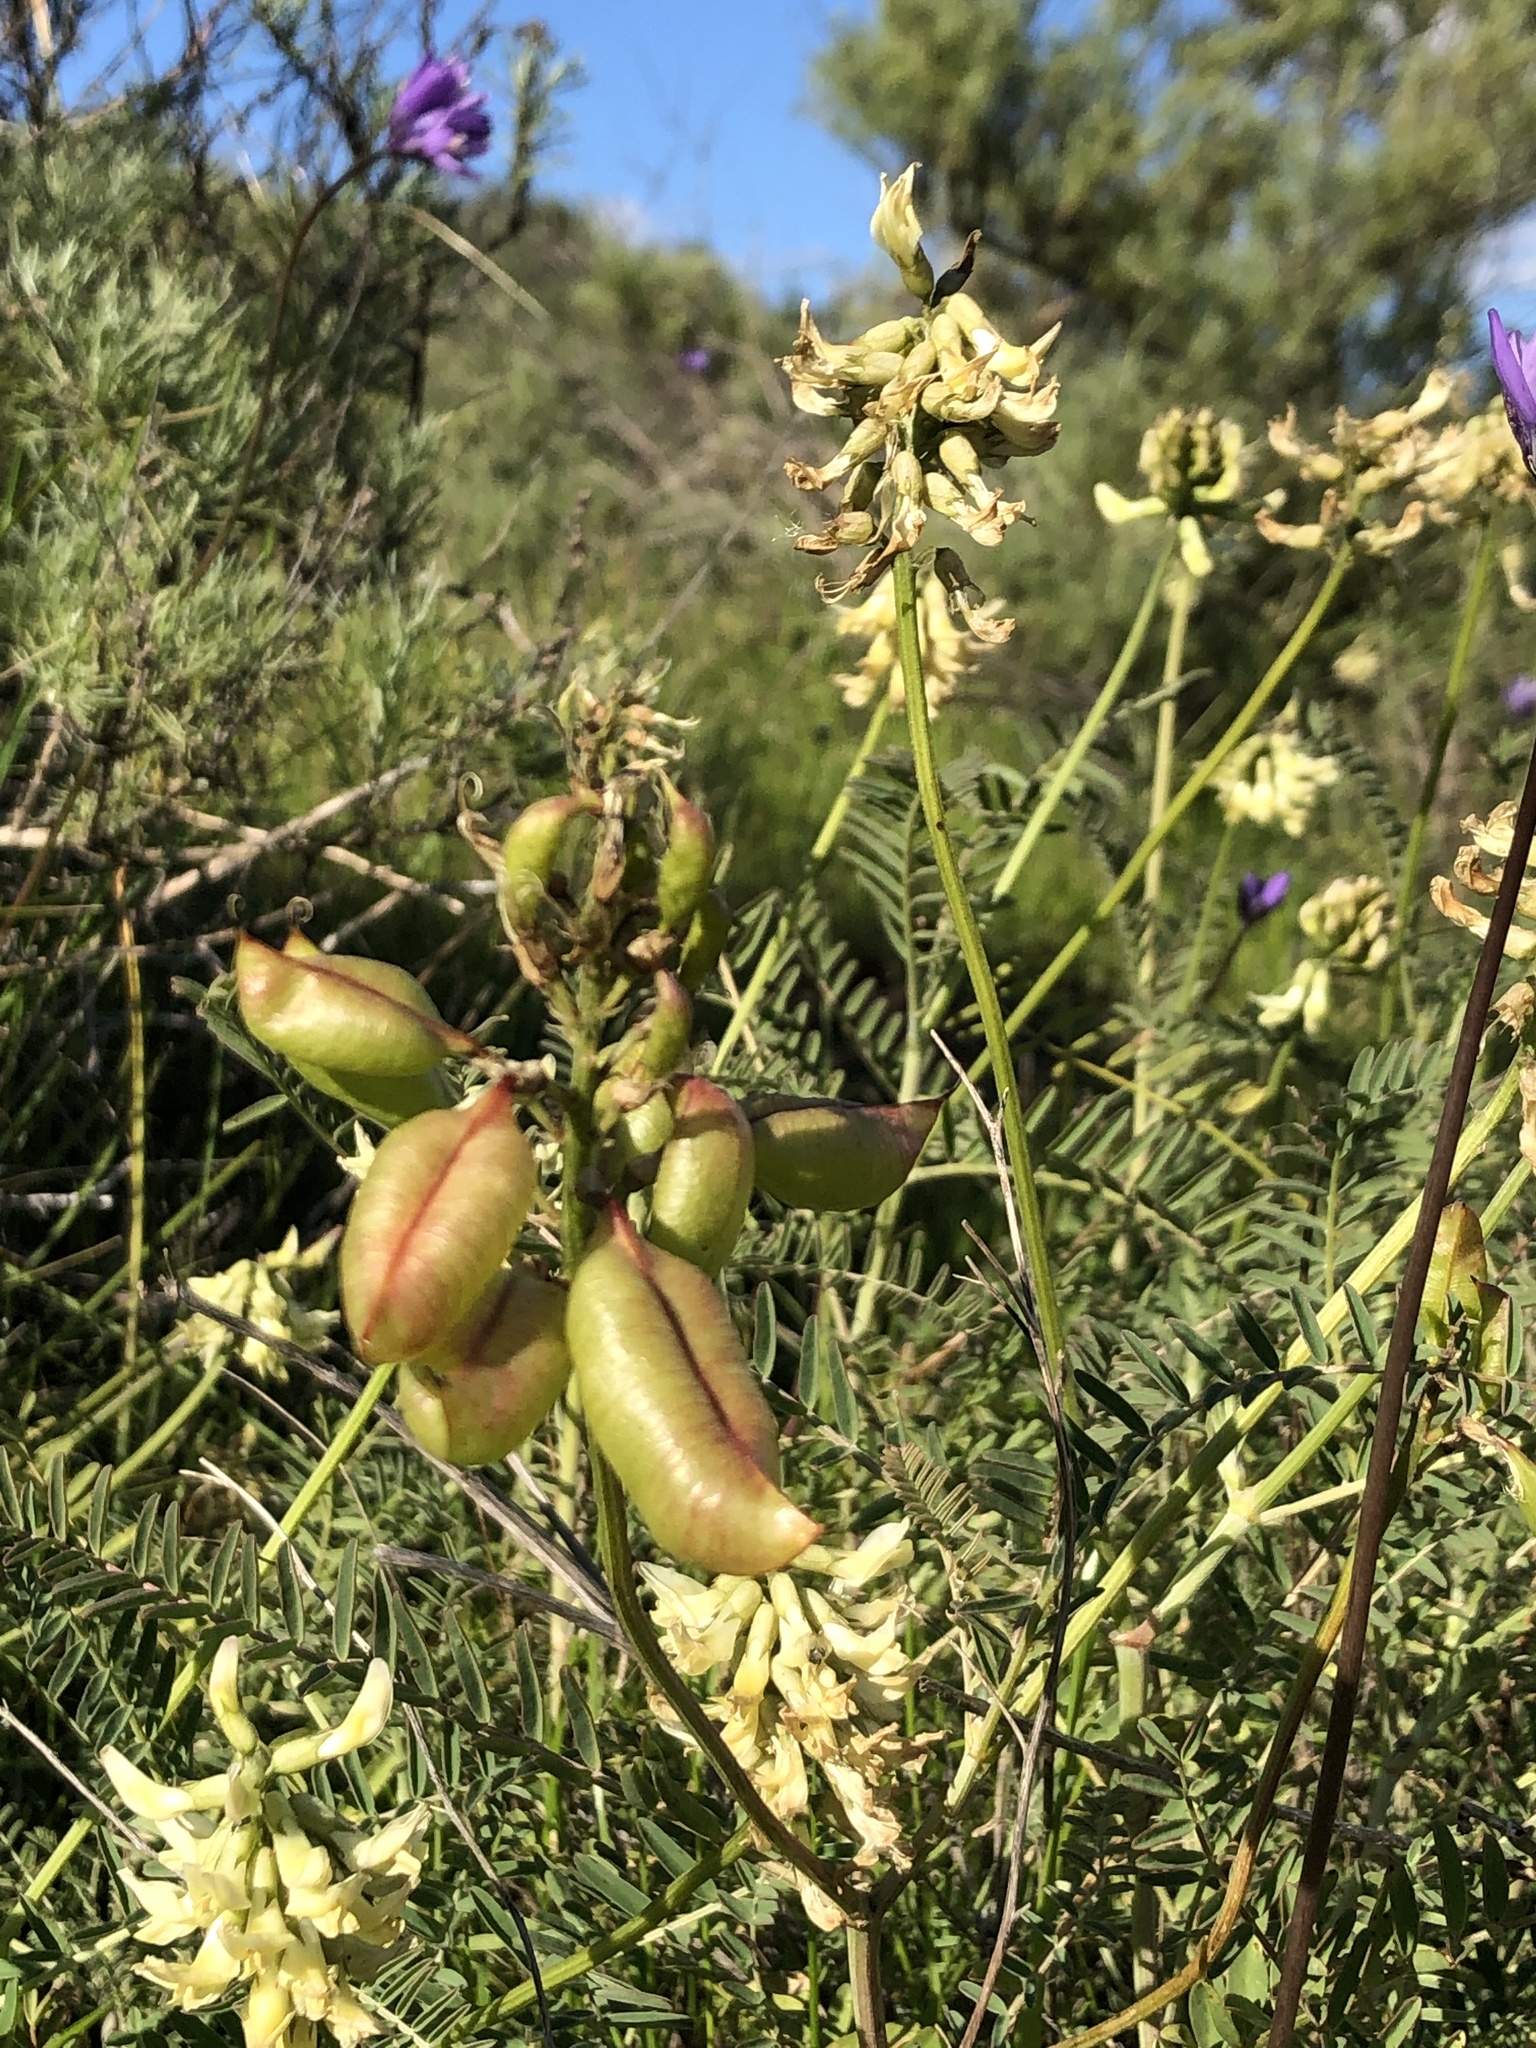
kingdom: Plantae
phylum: Tracheophyta
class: Magnoliopsida
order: Fabales
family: Fabaceae
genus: Astragalus
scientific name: Astragalus curtipes
